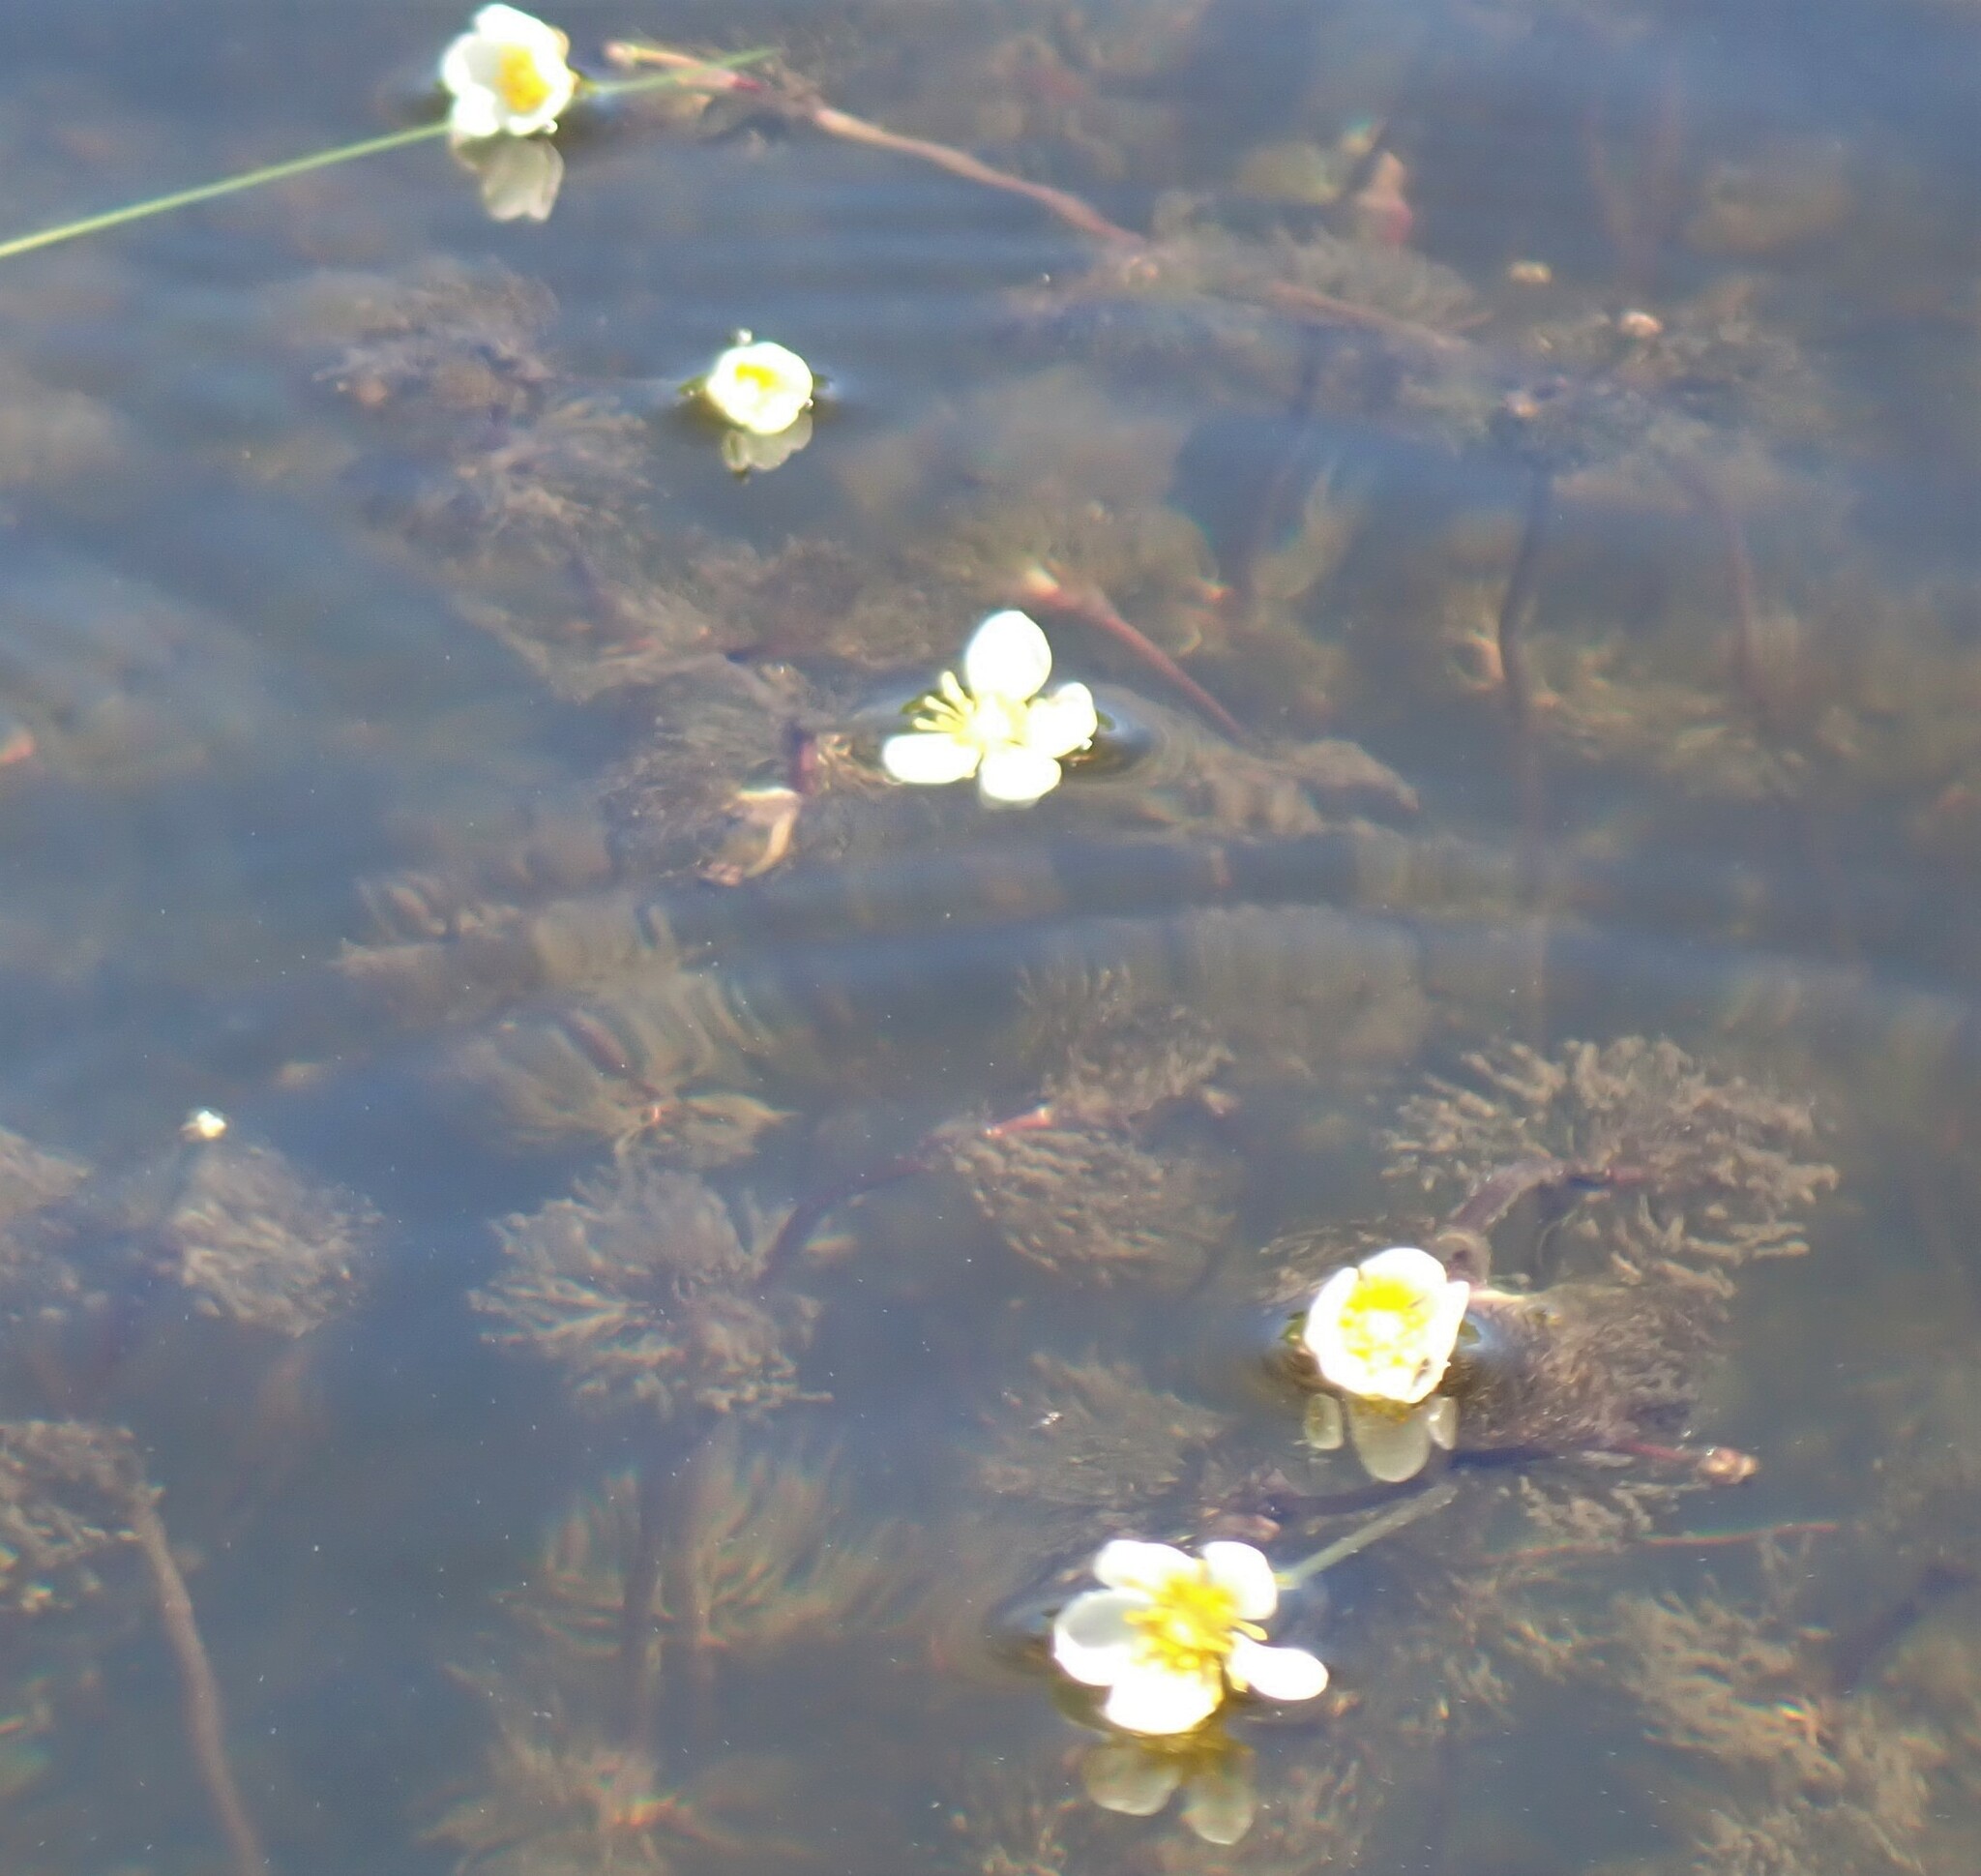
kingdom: Plantae
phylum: Tracheophyta
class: Magnoliopsida
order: Ranunculales
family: Ranunculaceae
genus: Ranunculus
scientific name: Ranunculus longirostris
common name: Curly white water-crowfoot
